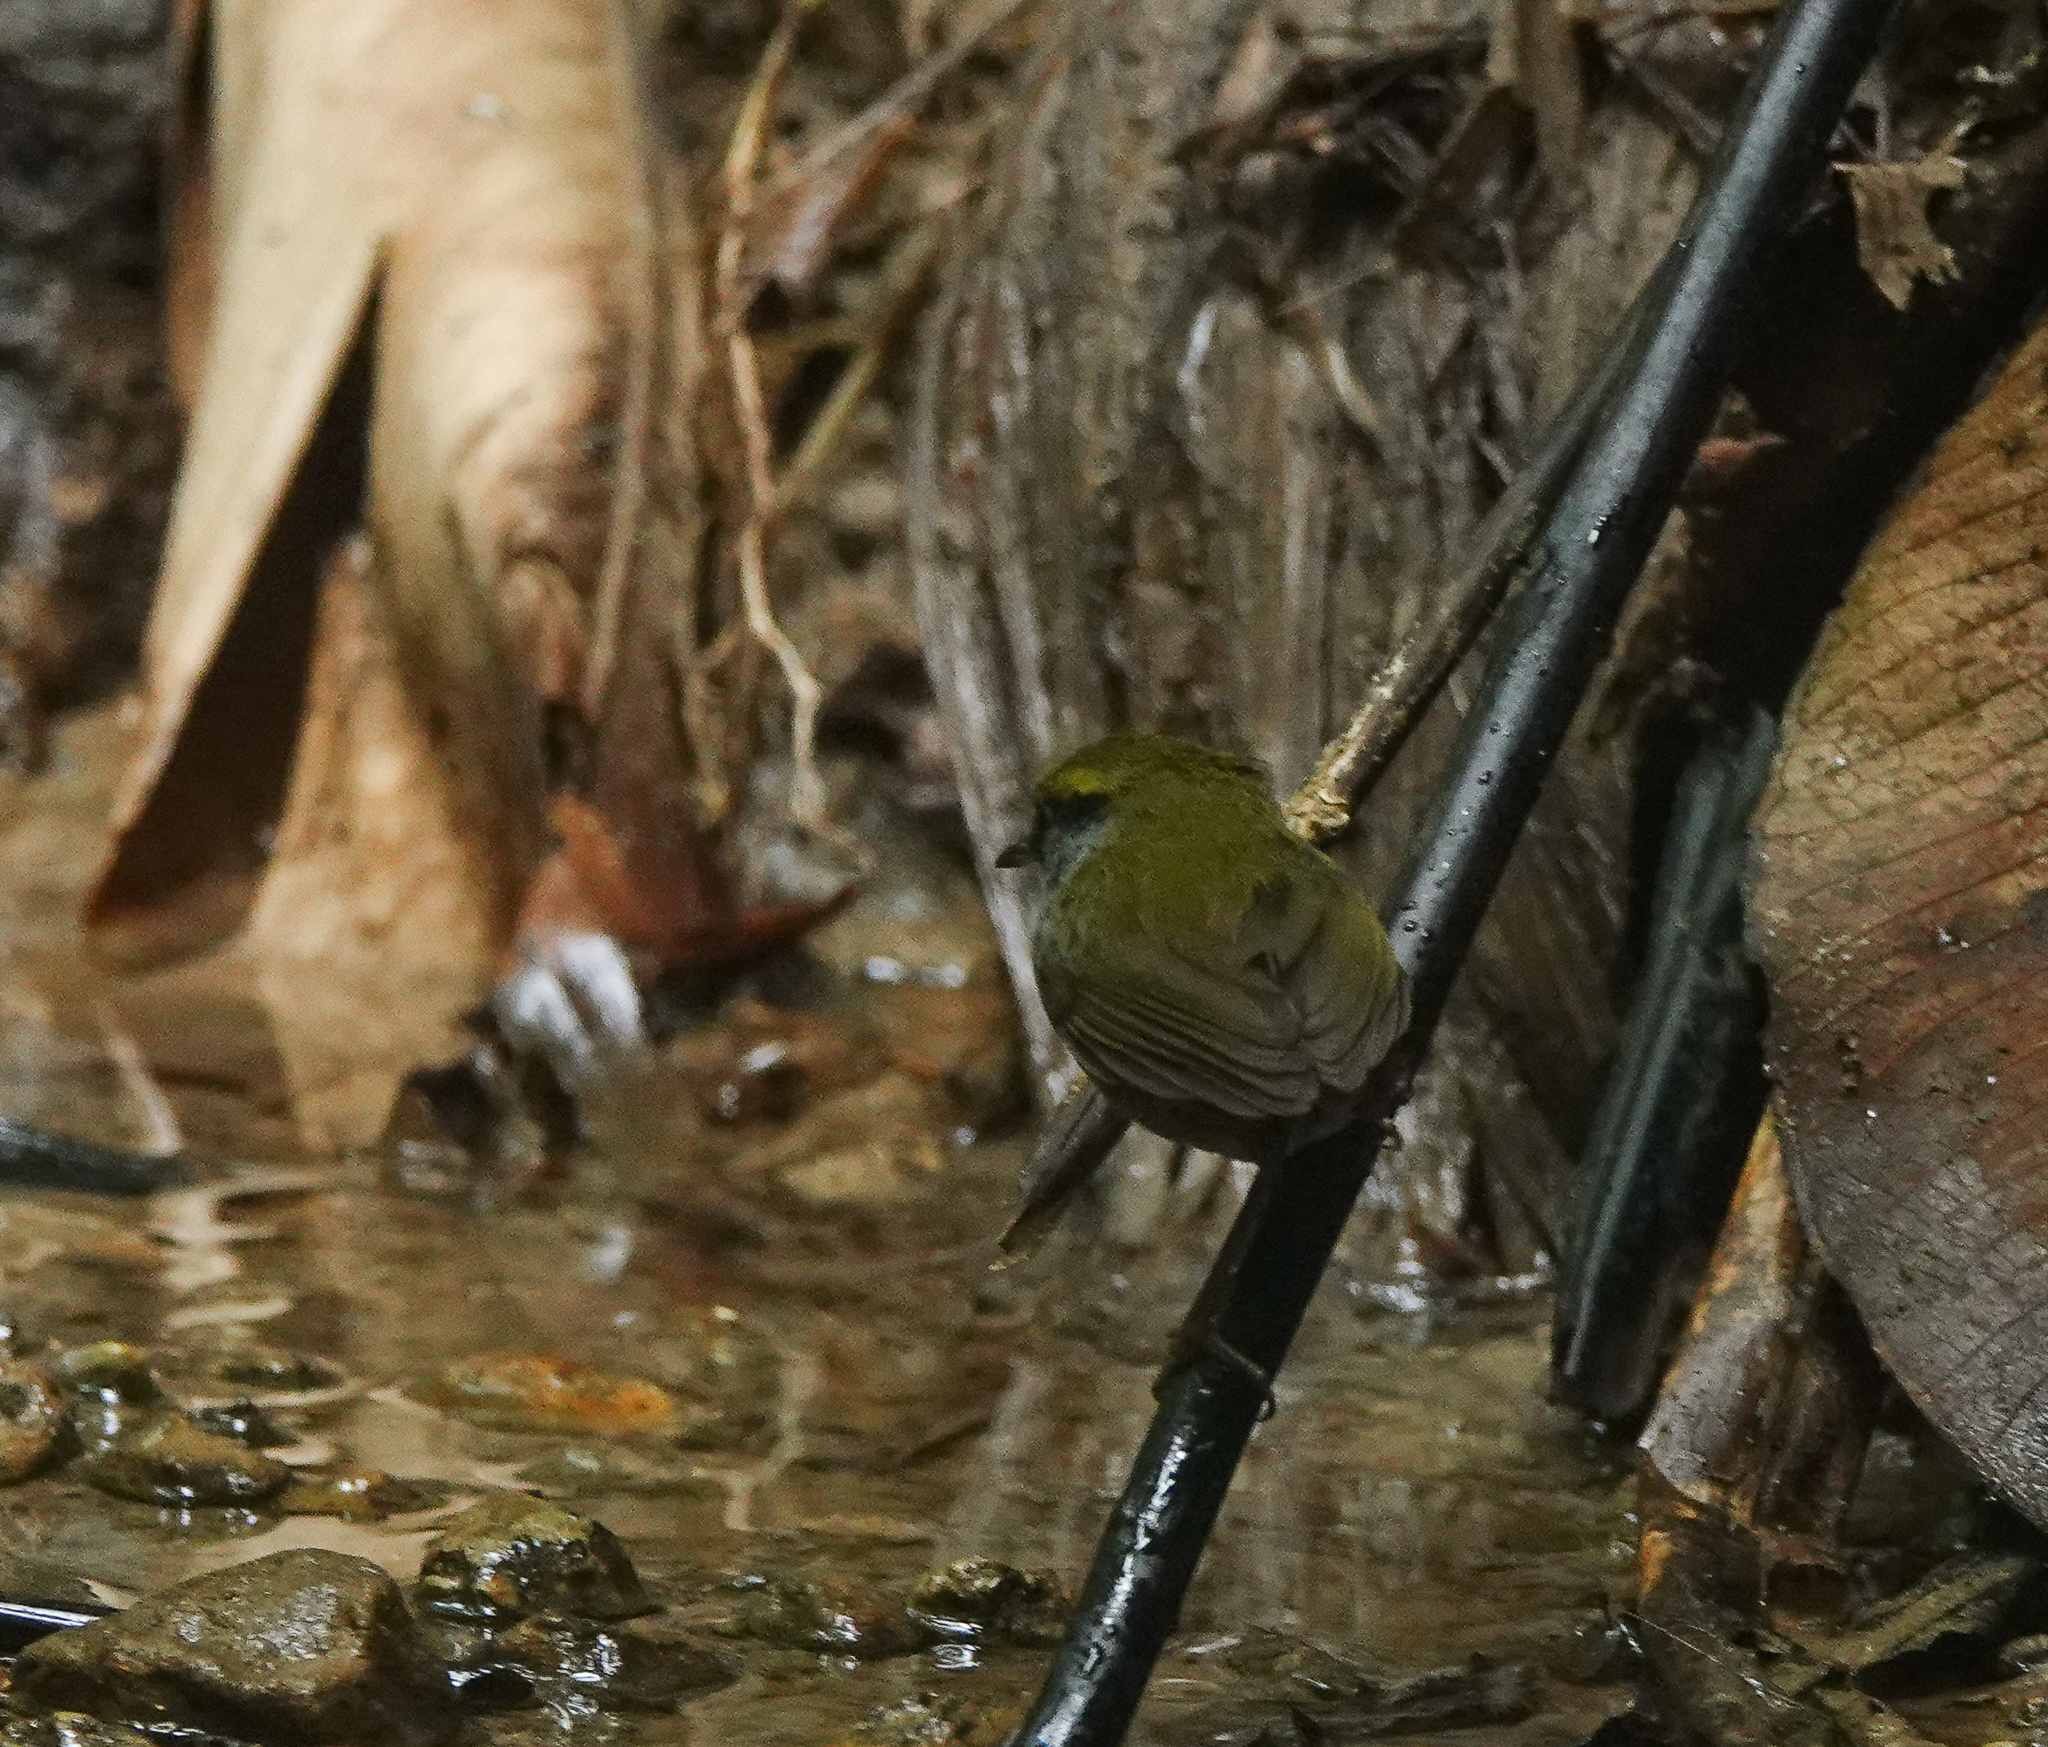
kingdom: Animalia
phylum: Chordata
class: Aves
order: Passeriformes
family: Cettiidae
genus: Tesia
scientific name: Tesia cyaniventer
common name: Grey-bellied tesia
